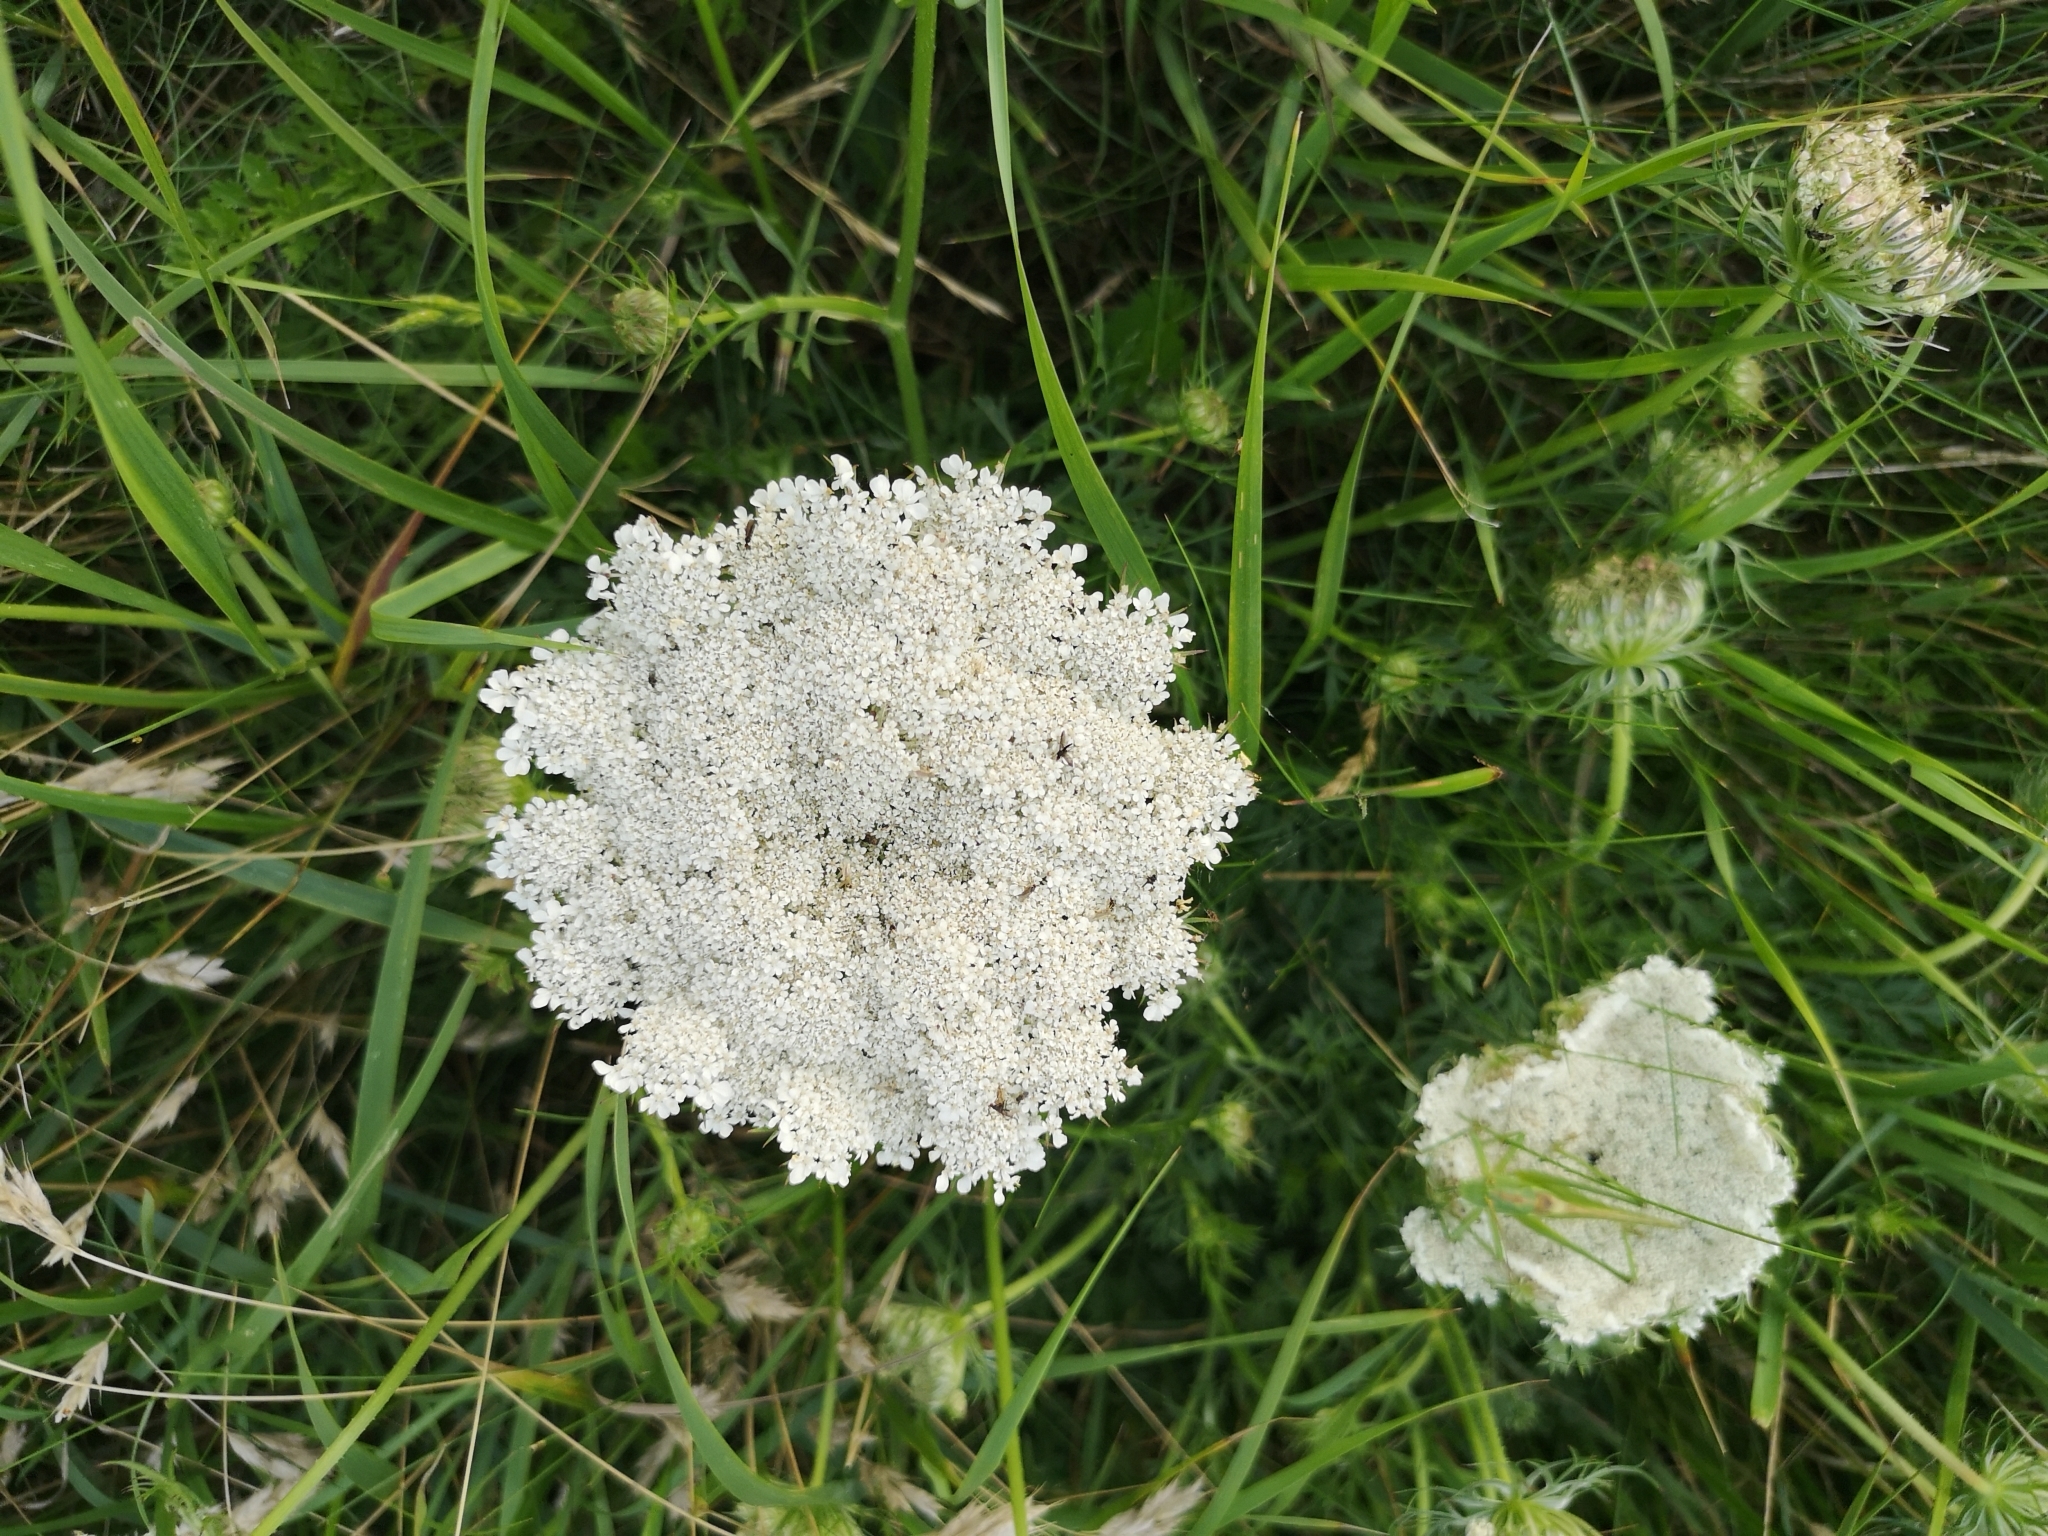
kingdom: Plantae
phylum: Tracheophyta
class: Magnoliopsida
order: Apiales
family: Apiaceae
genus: Daucus
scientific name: Daucus carota
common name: Wild carrot
